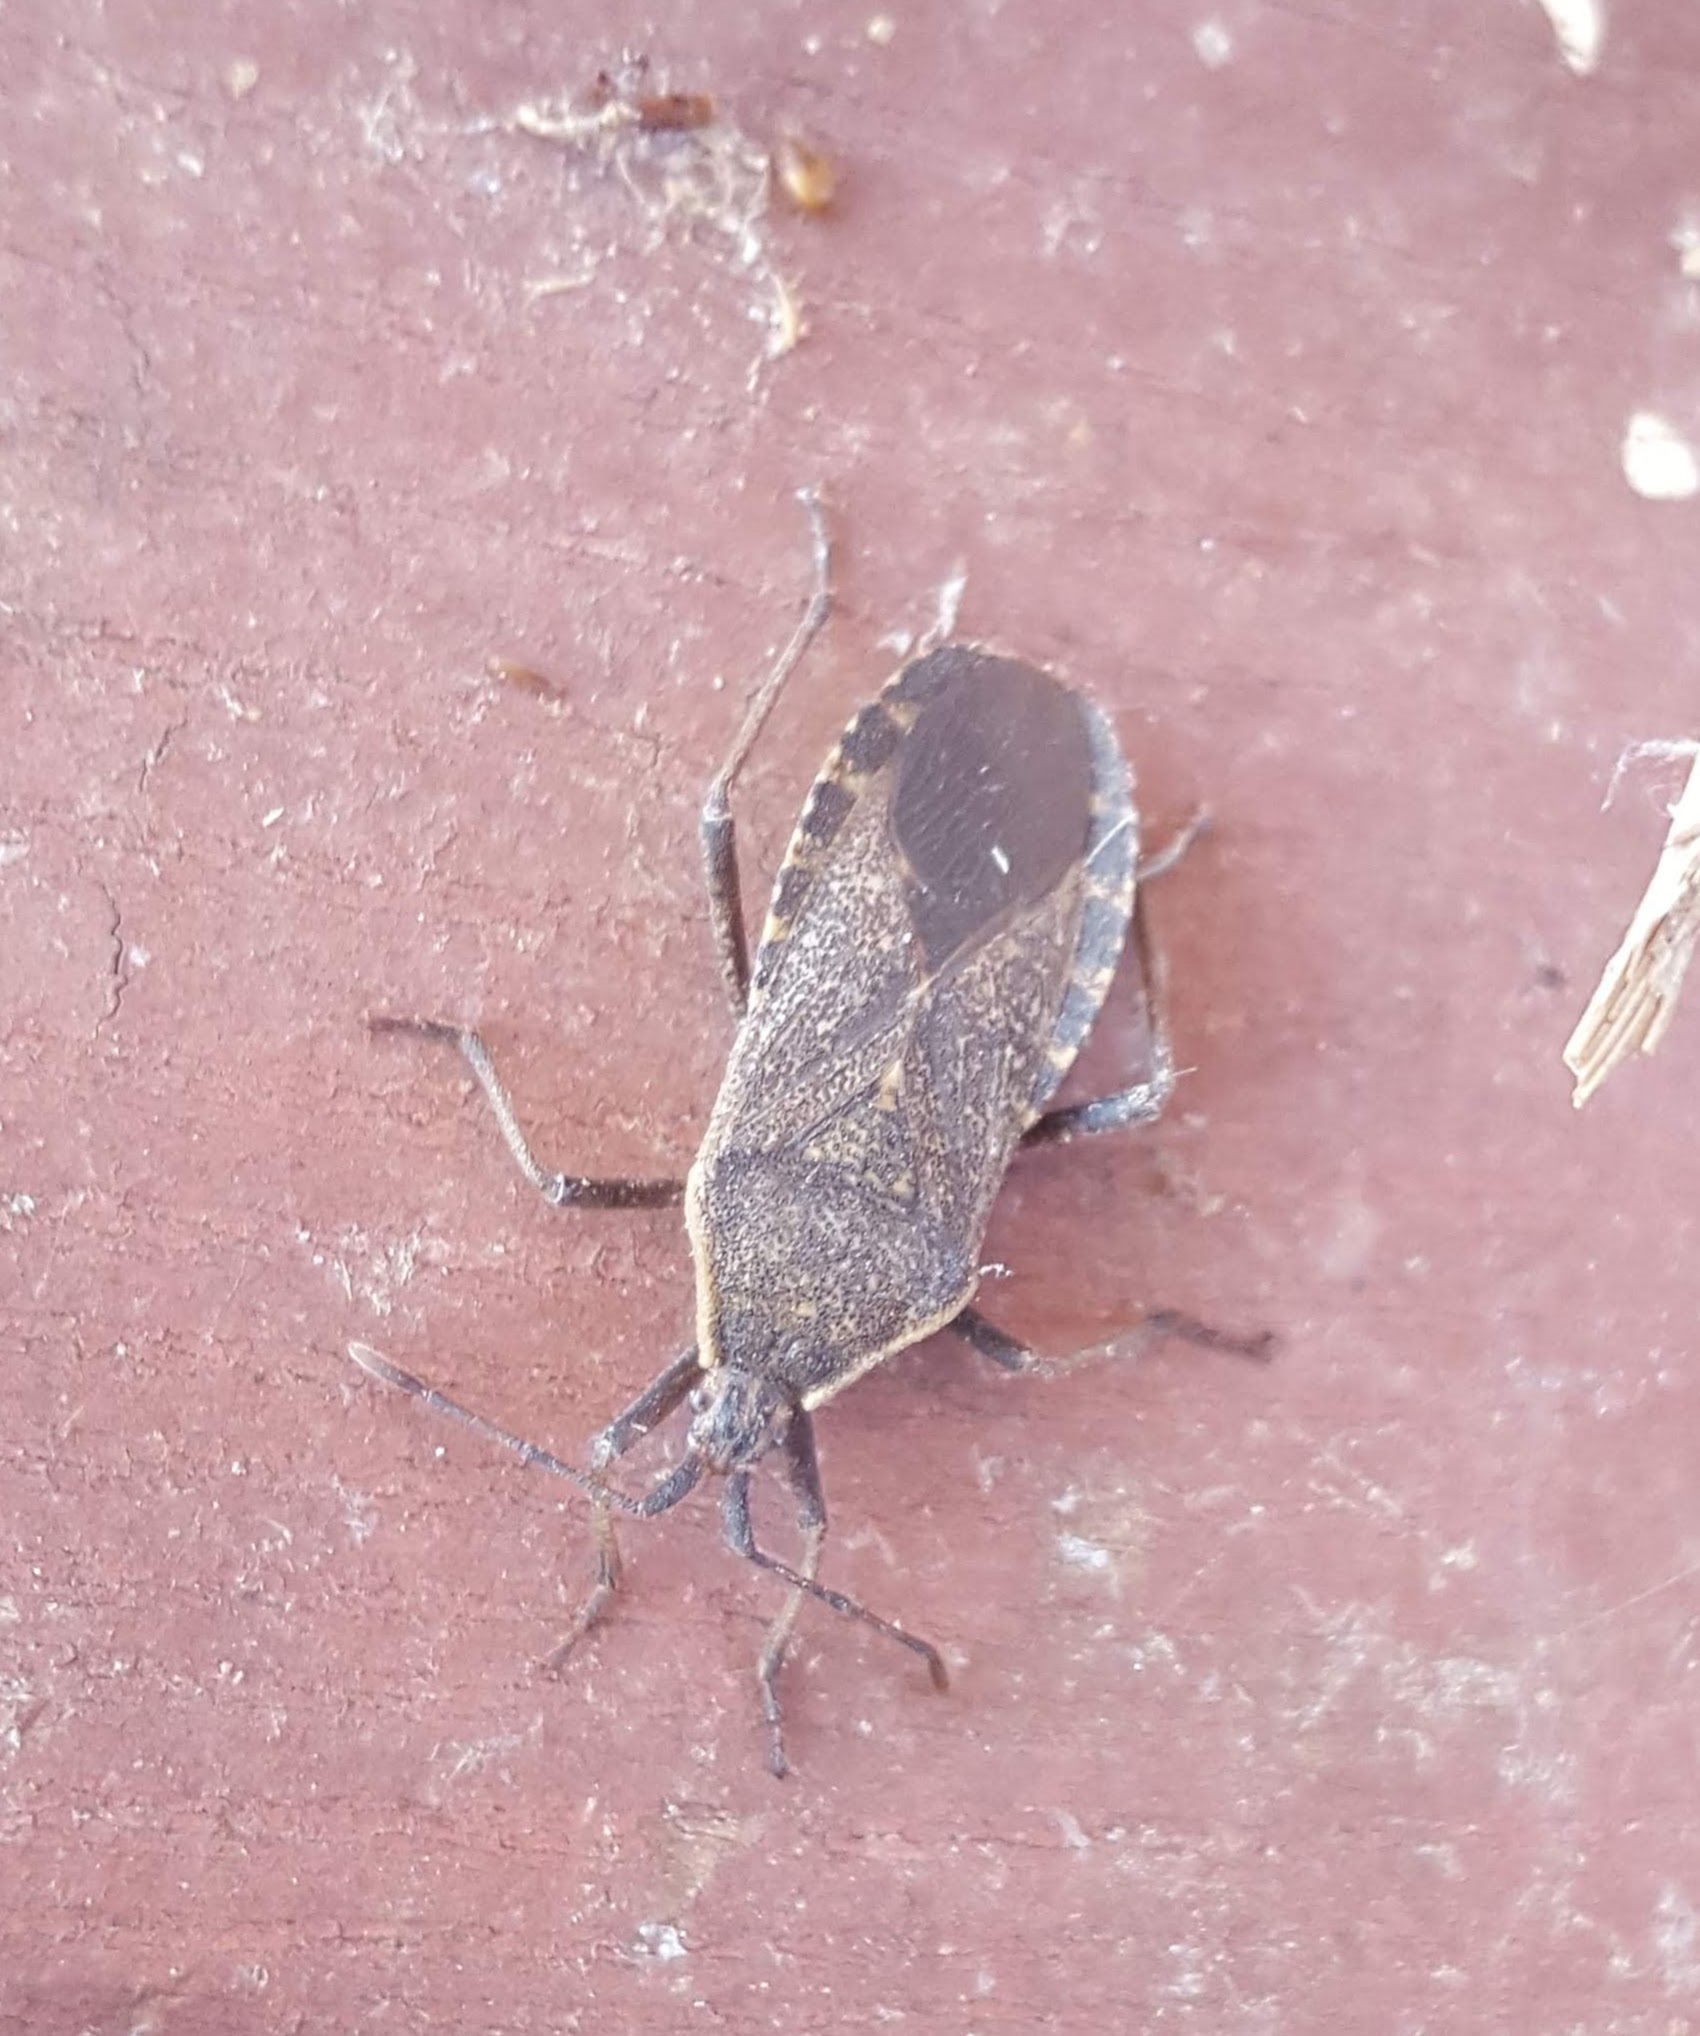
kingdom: Animalia
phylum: Arthropoda
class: Insecta
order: Hemiptera
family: Coreidae
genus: Anasa
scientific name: Anasa tristis
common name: Squash bug
